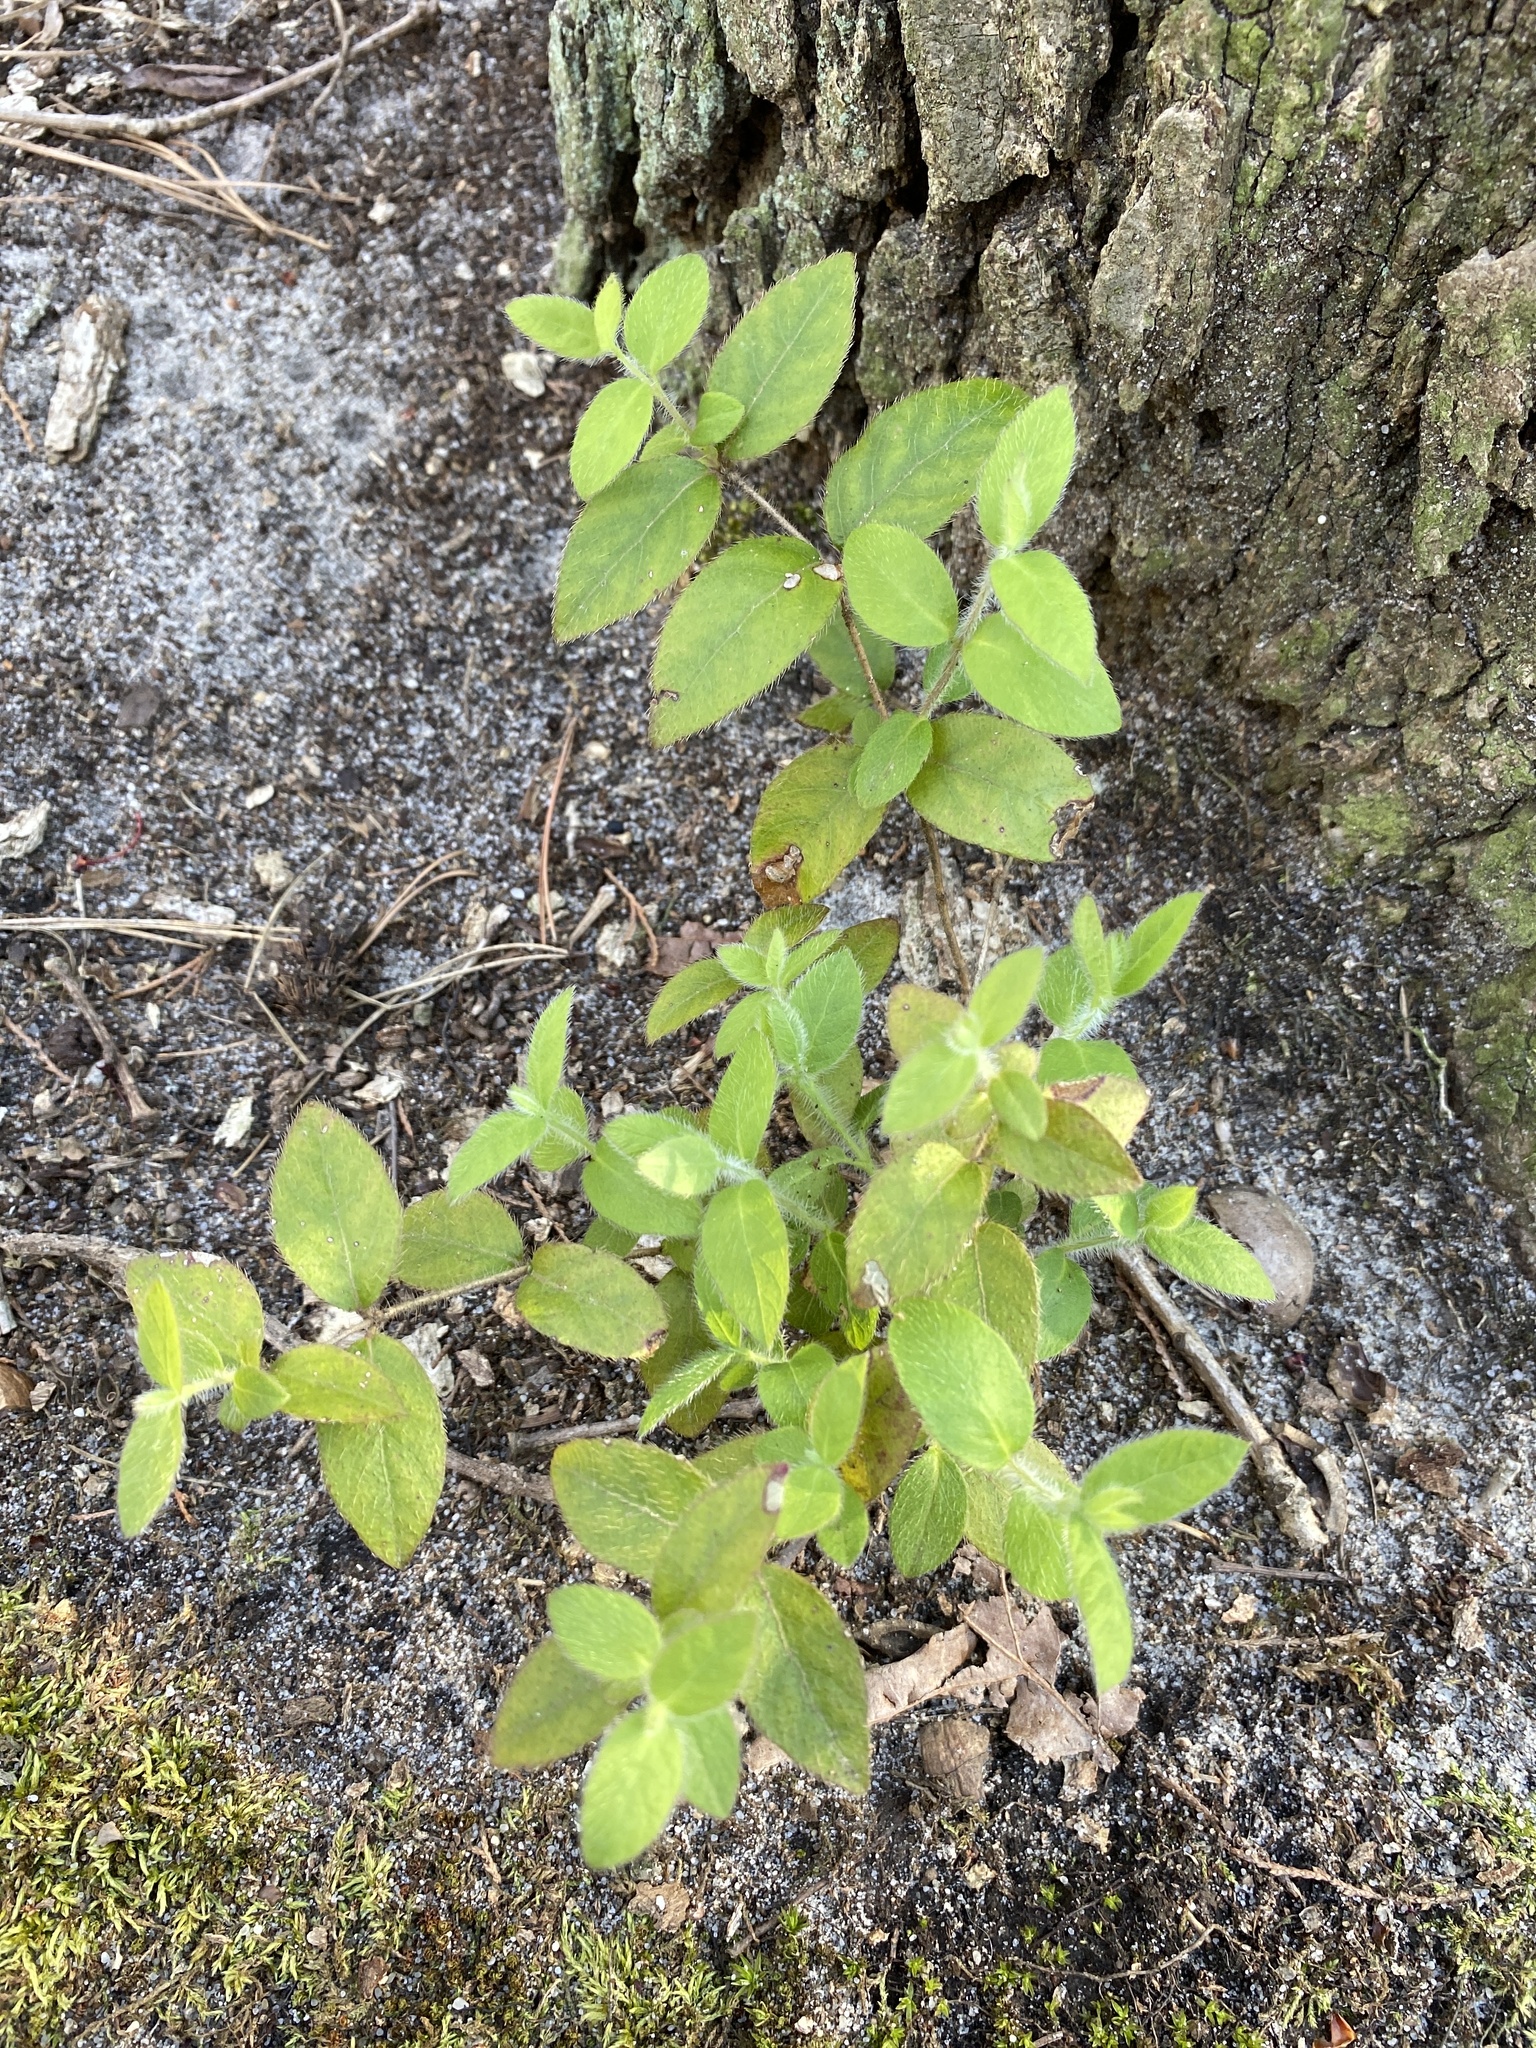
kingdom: Plantae
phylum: Tracheophyta
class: Magnoliopsida
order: Dipsacales
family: Caprifoliaceae
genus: Lonicera
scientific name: Lonicera fragrantissima
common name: Fragrant honeysuckle
